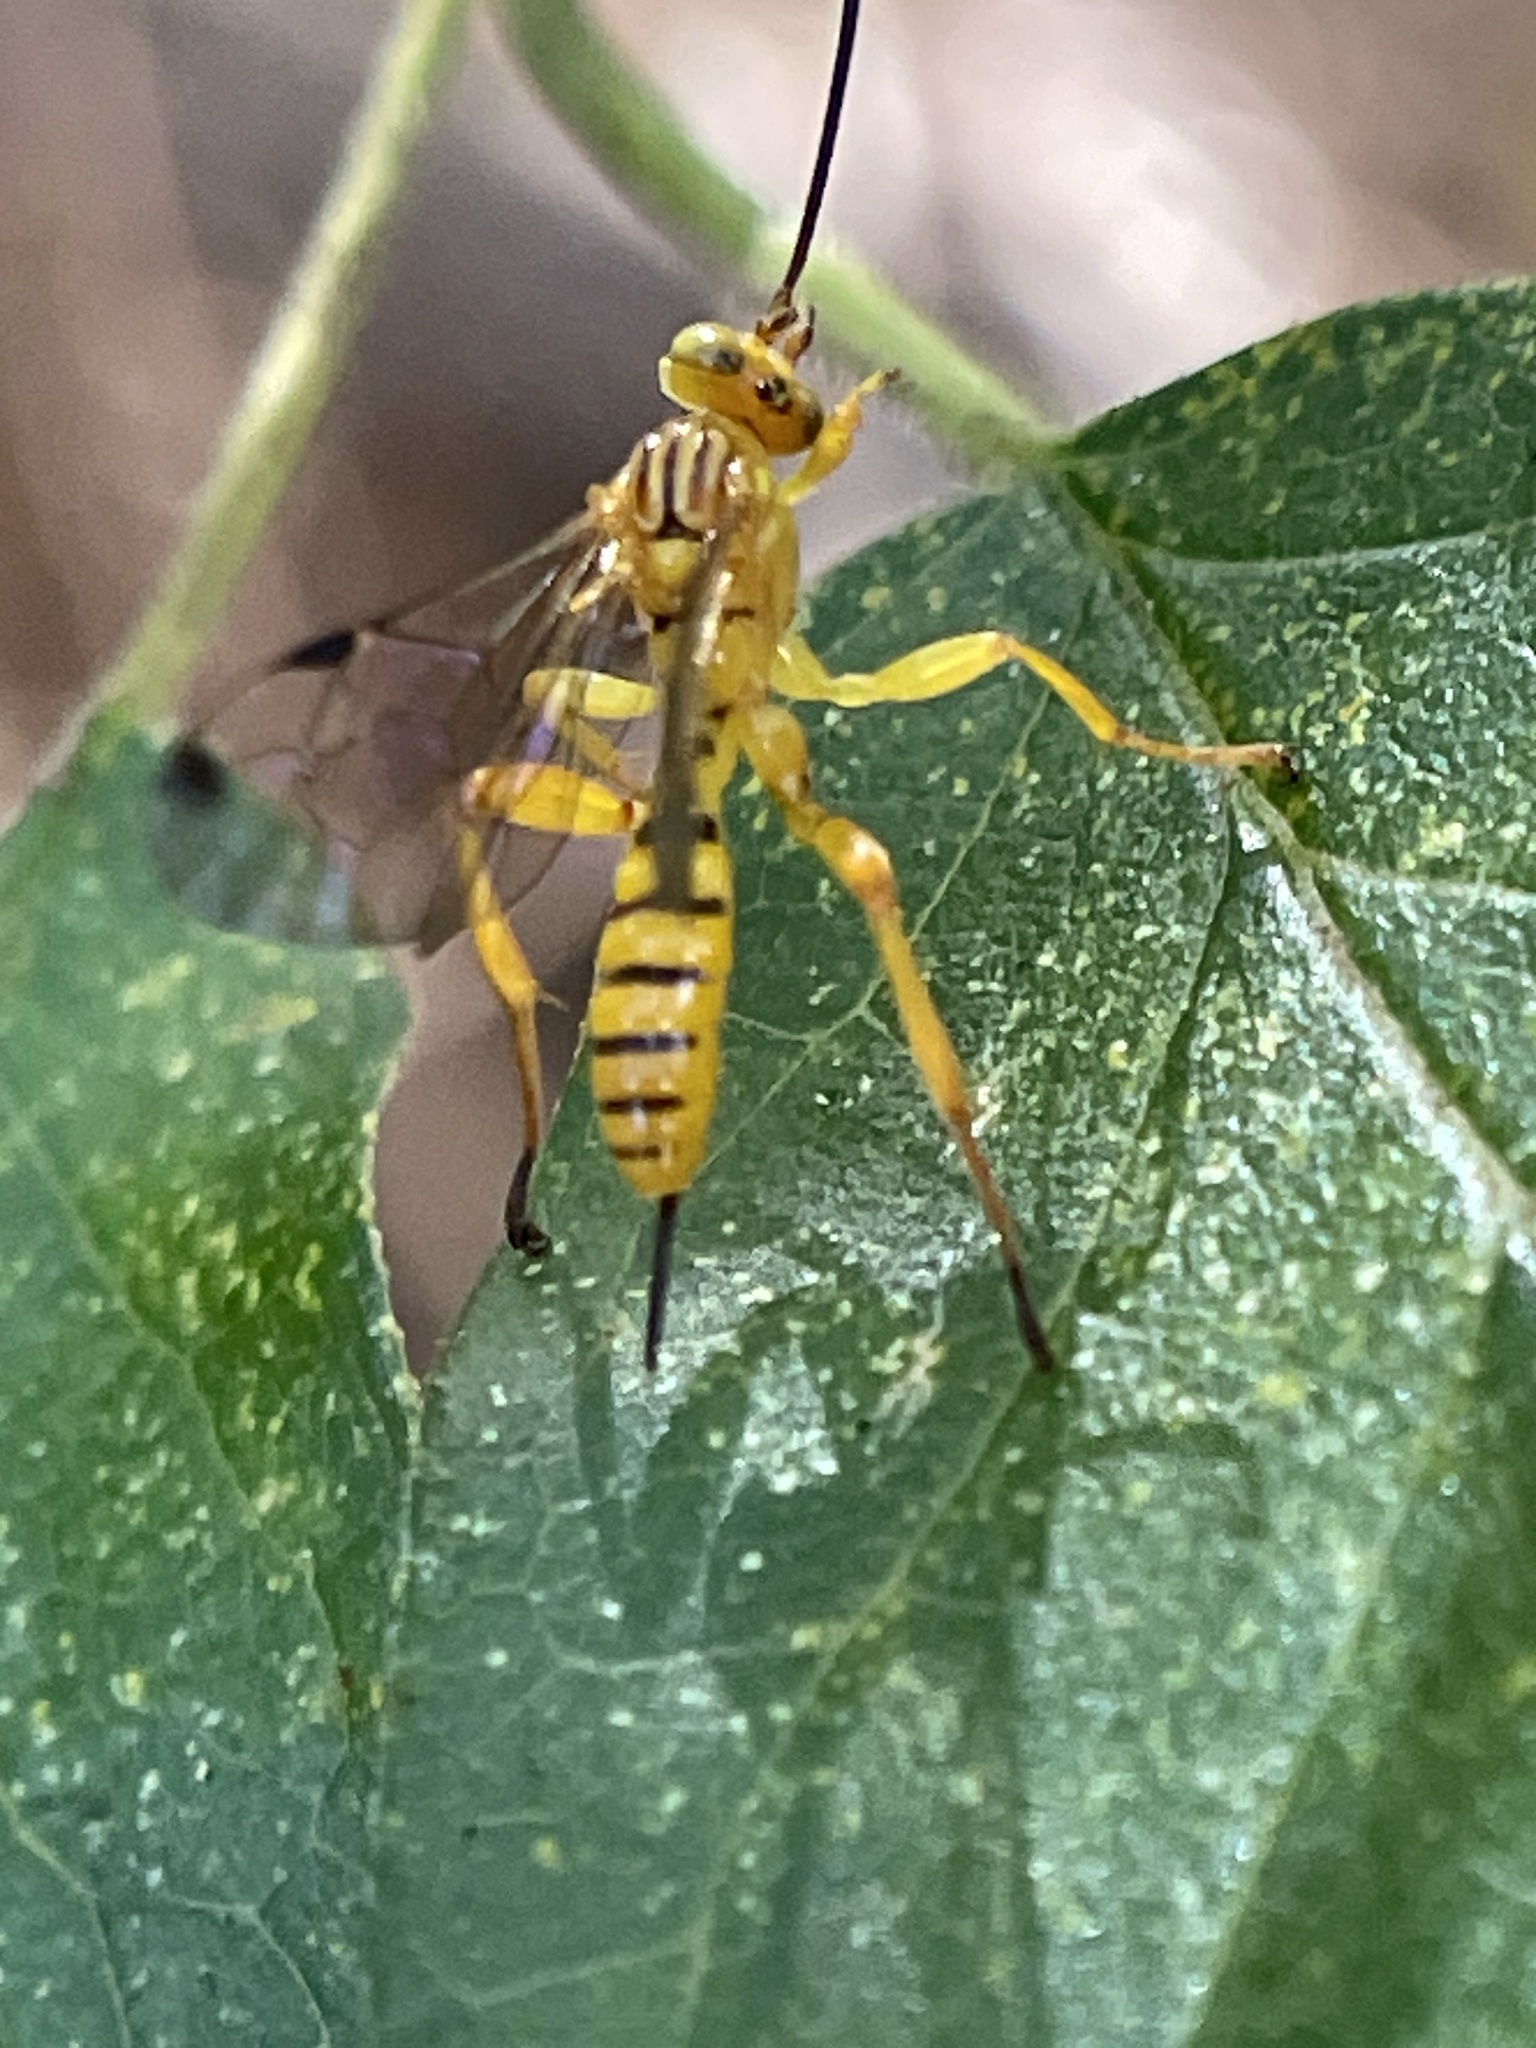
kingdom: Animalia
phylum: Arthropoda
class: Insecta
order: Hymenoptera
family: Ichneumonidae
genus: Neotheronia
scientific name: Neotheronia septemtrionalis
